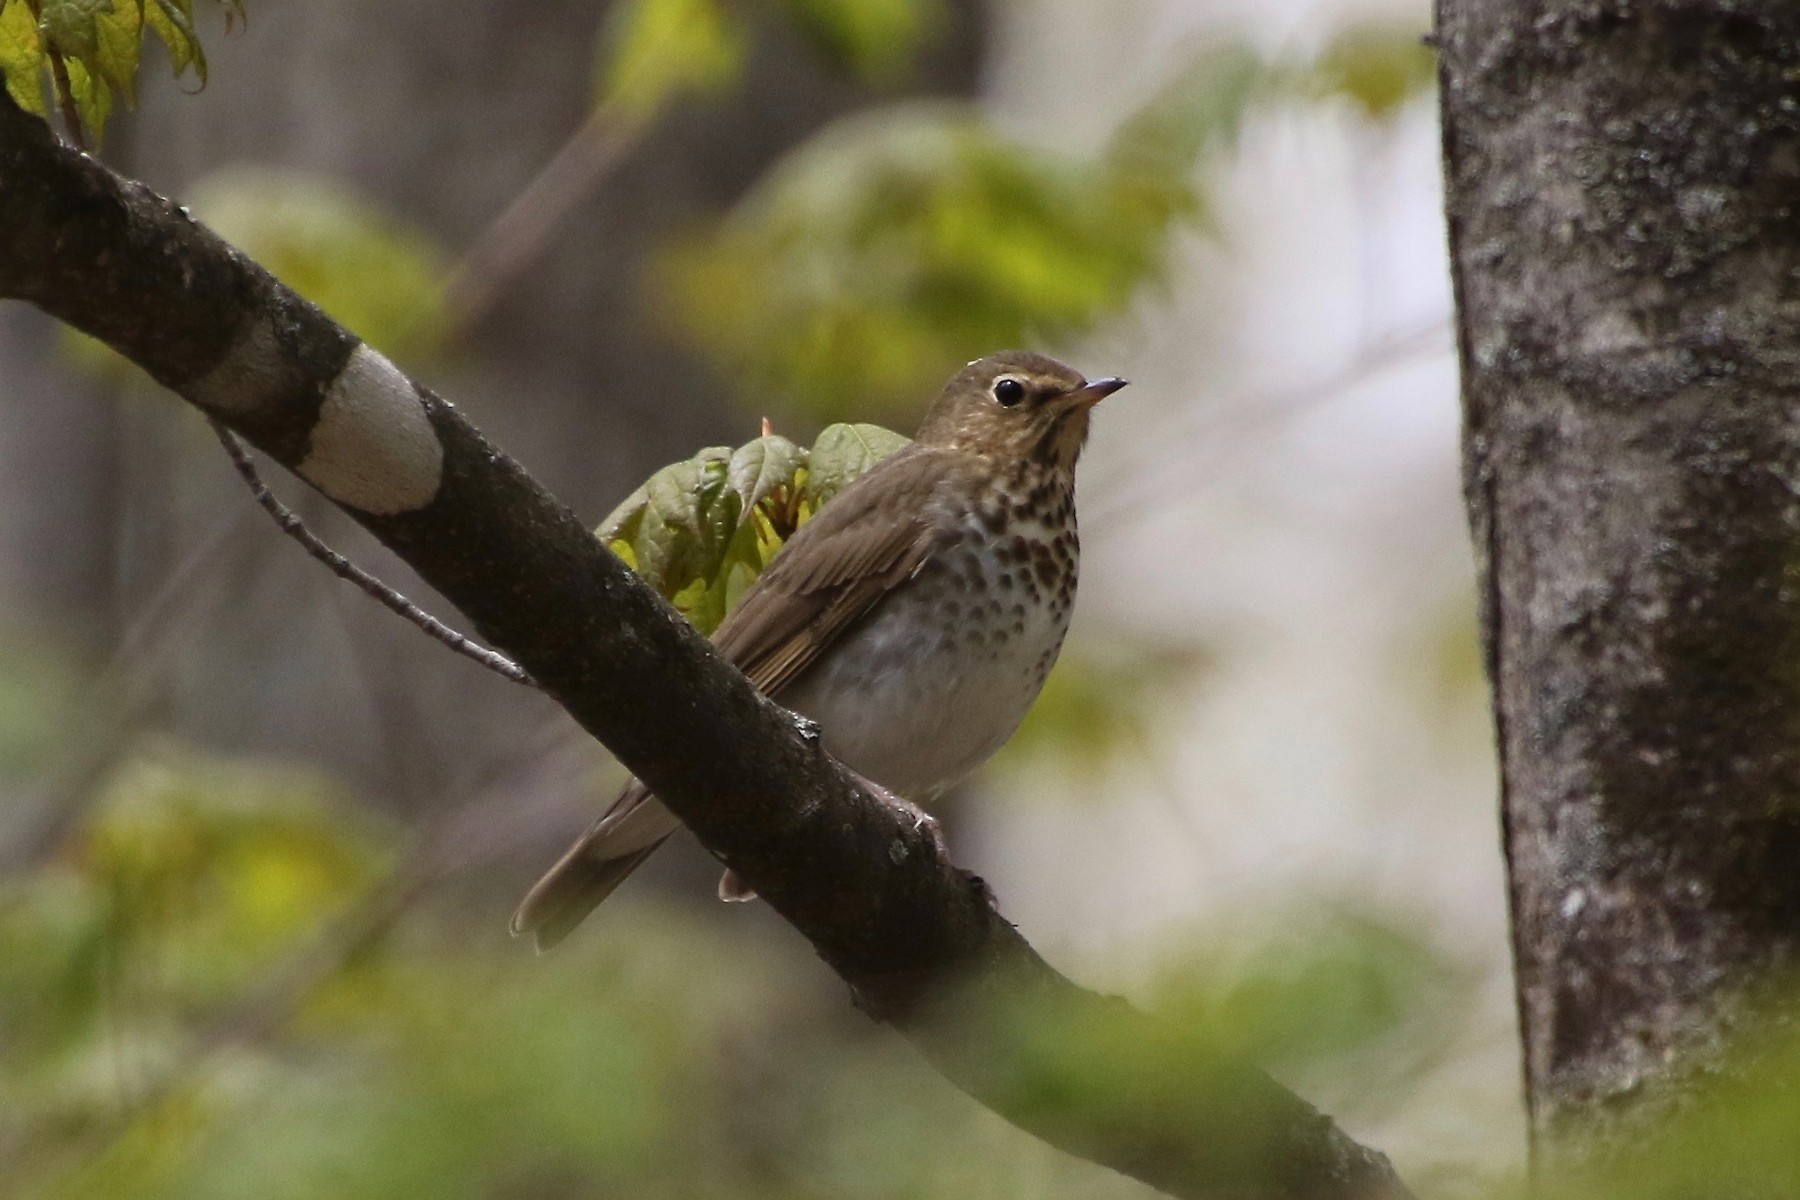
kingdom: Animalia
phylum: Chordata
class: Aves
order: Passeriformes
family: Turdidae
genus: Catharus
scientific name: Catharus ustulatus
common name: Swainson's thrush
